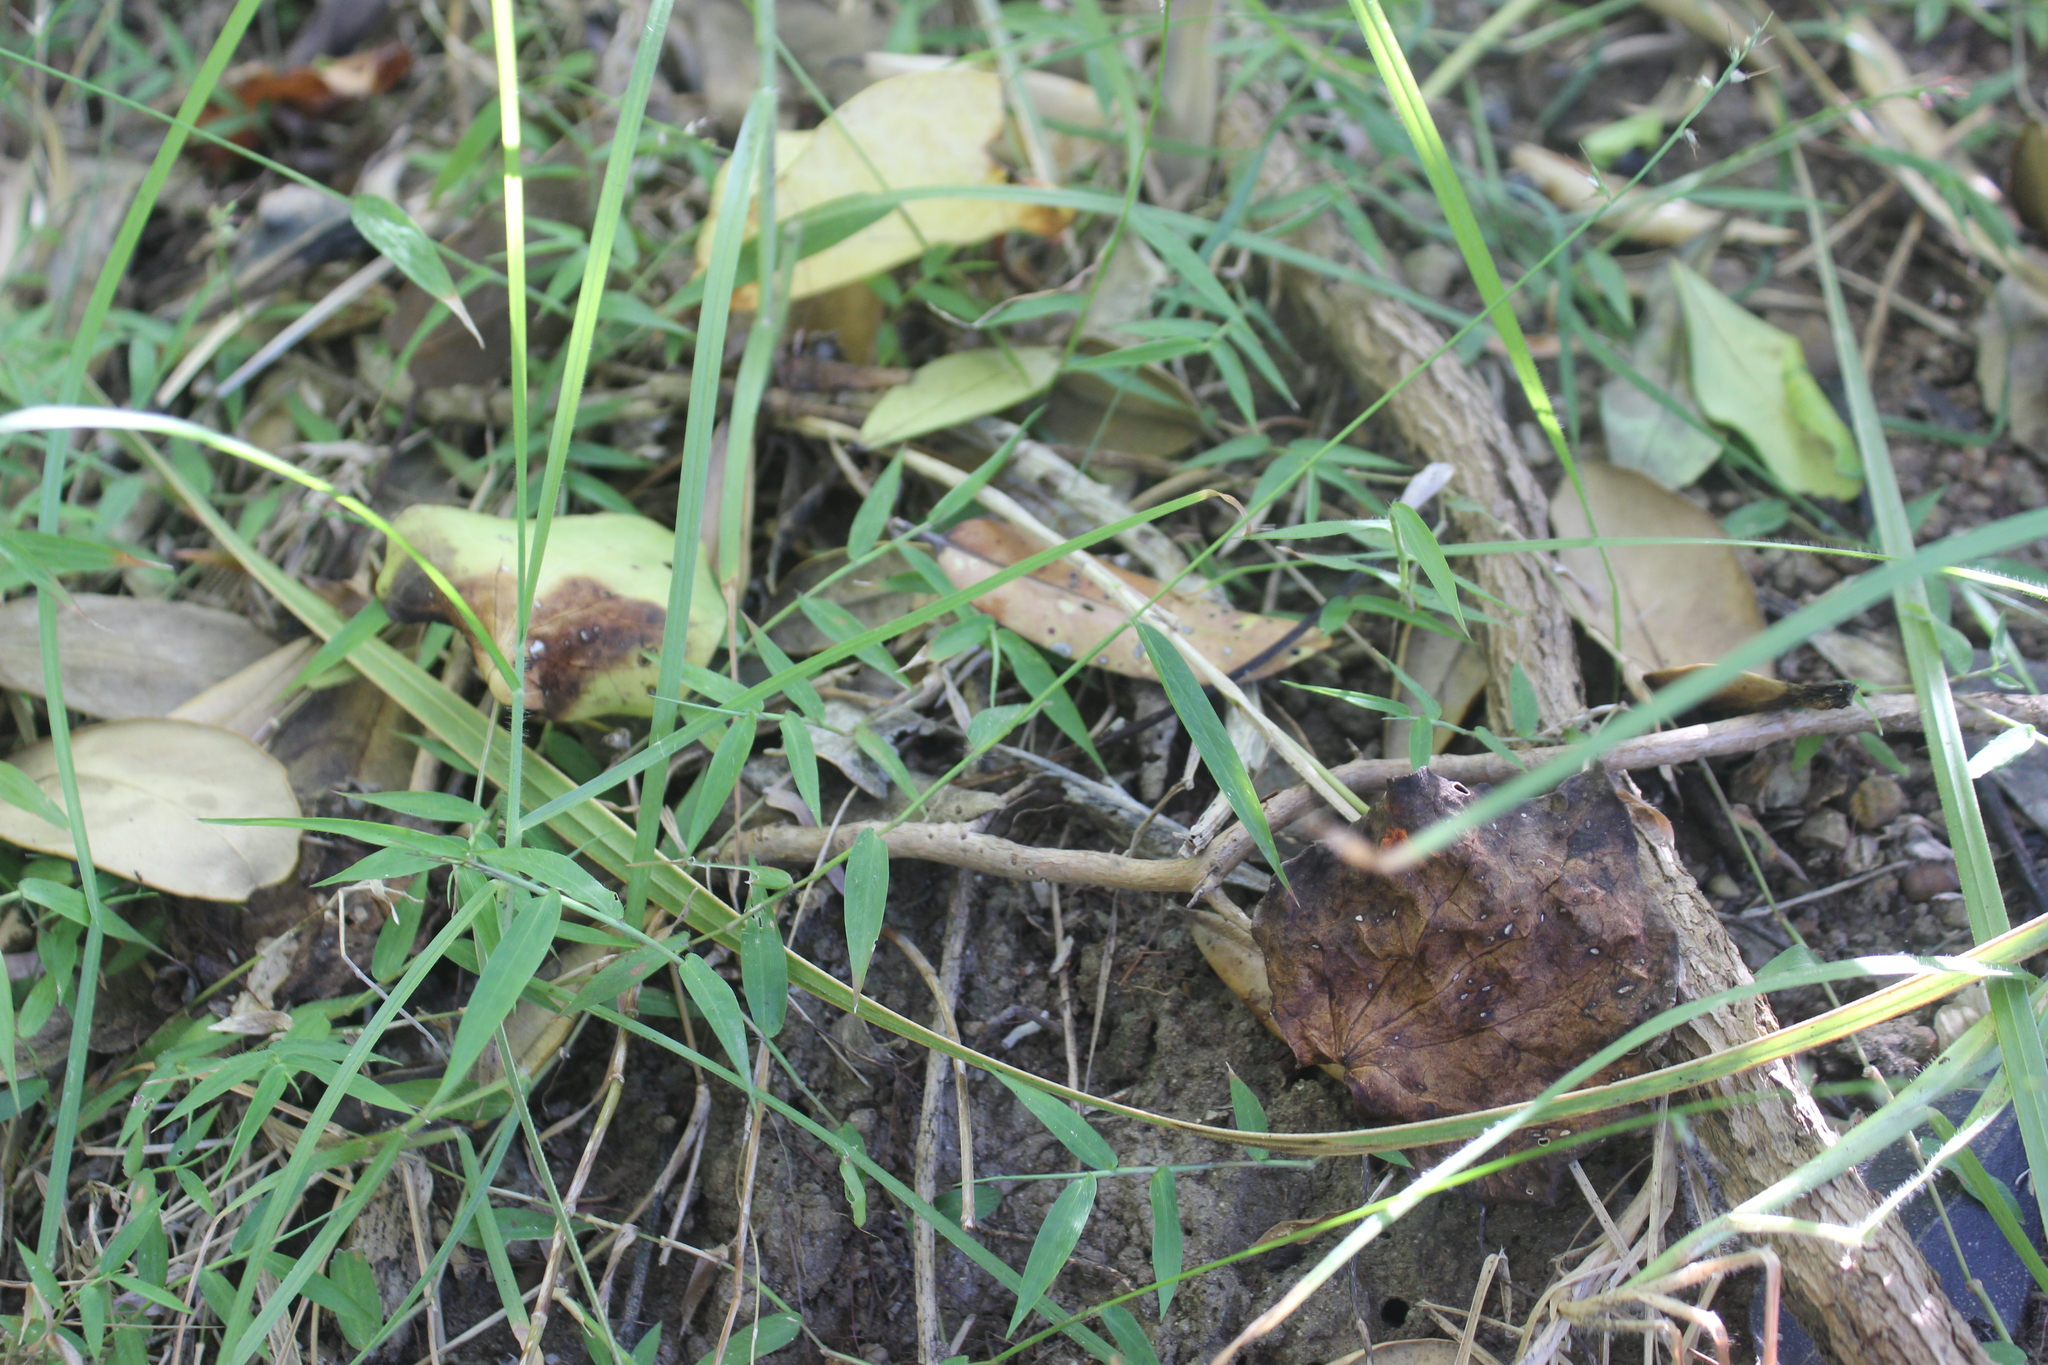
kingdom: Plantae
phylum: Tracheophyta
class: Liliopsida
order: Poales
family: Poaceae
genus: Oplismenus
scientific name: Oplismenus hirtellus
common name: Basketgrass
